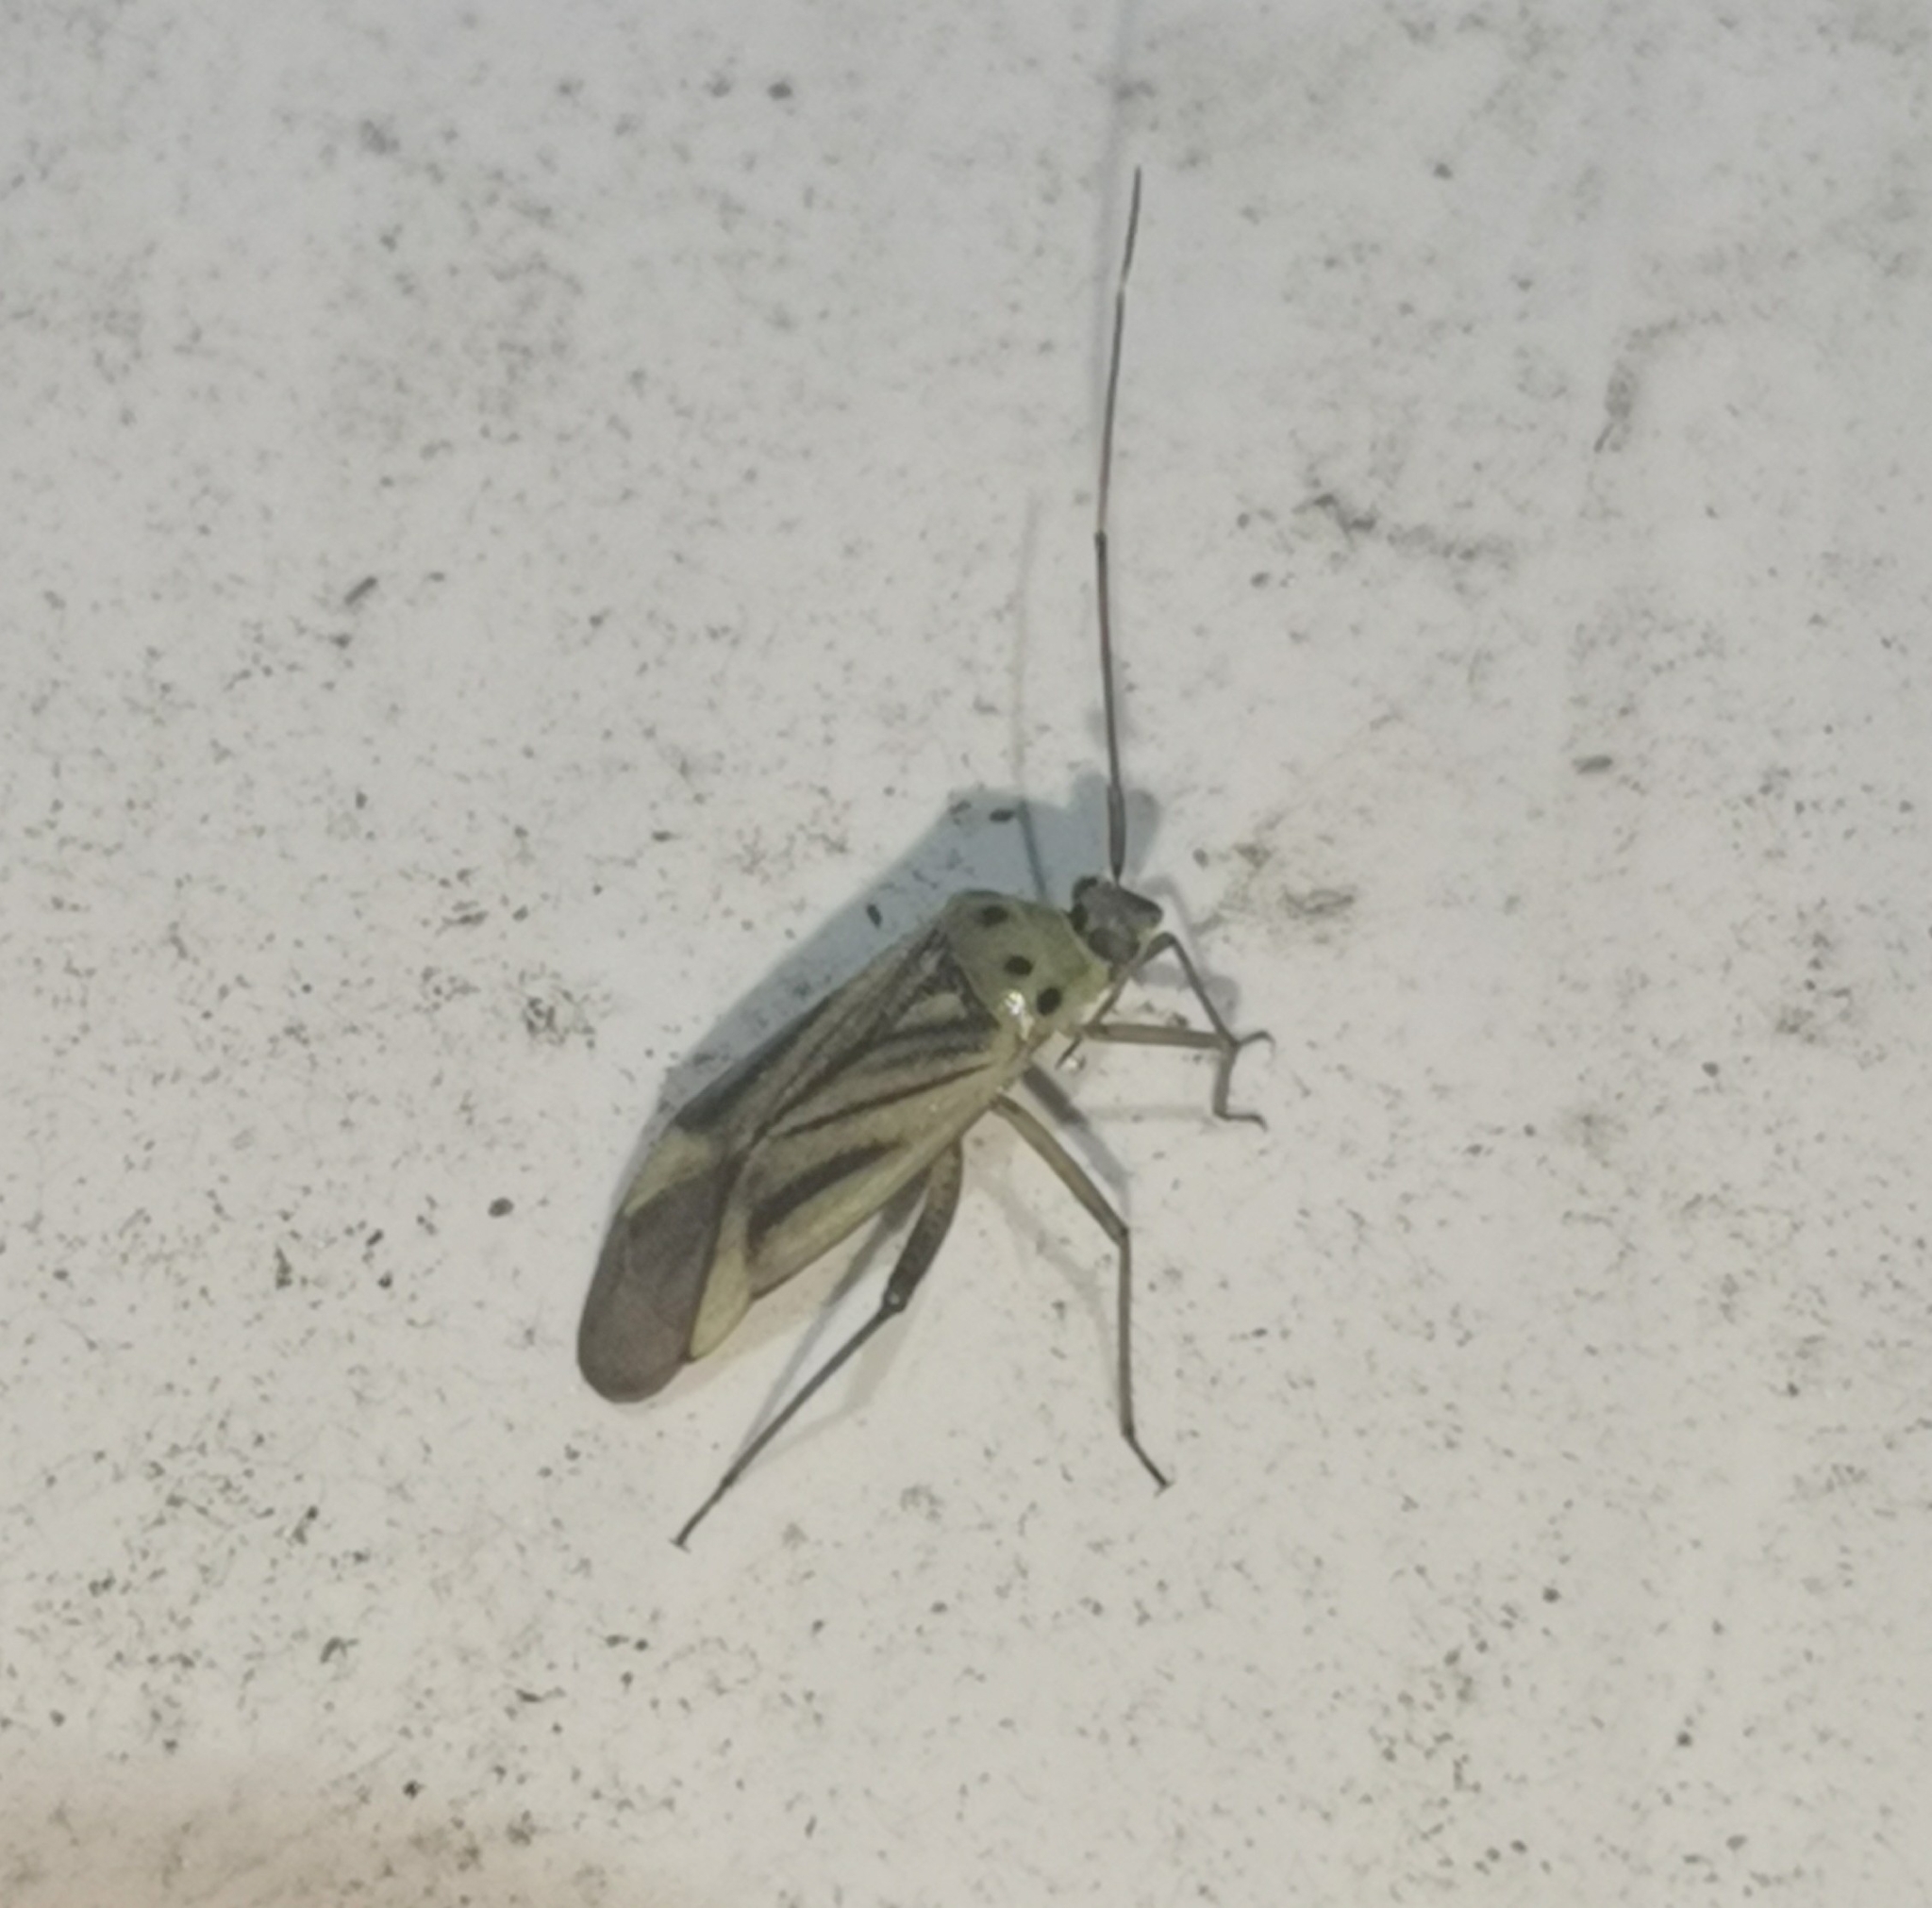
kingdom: Animalia
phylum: Arthropoda
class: Insecta
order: Hemiptera
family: Miridae
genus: Adelphocoris
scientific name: Adelphocoris quadripunctatus
